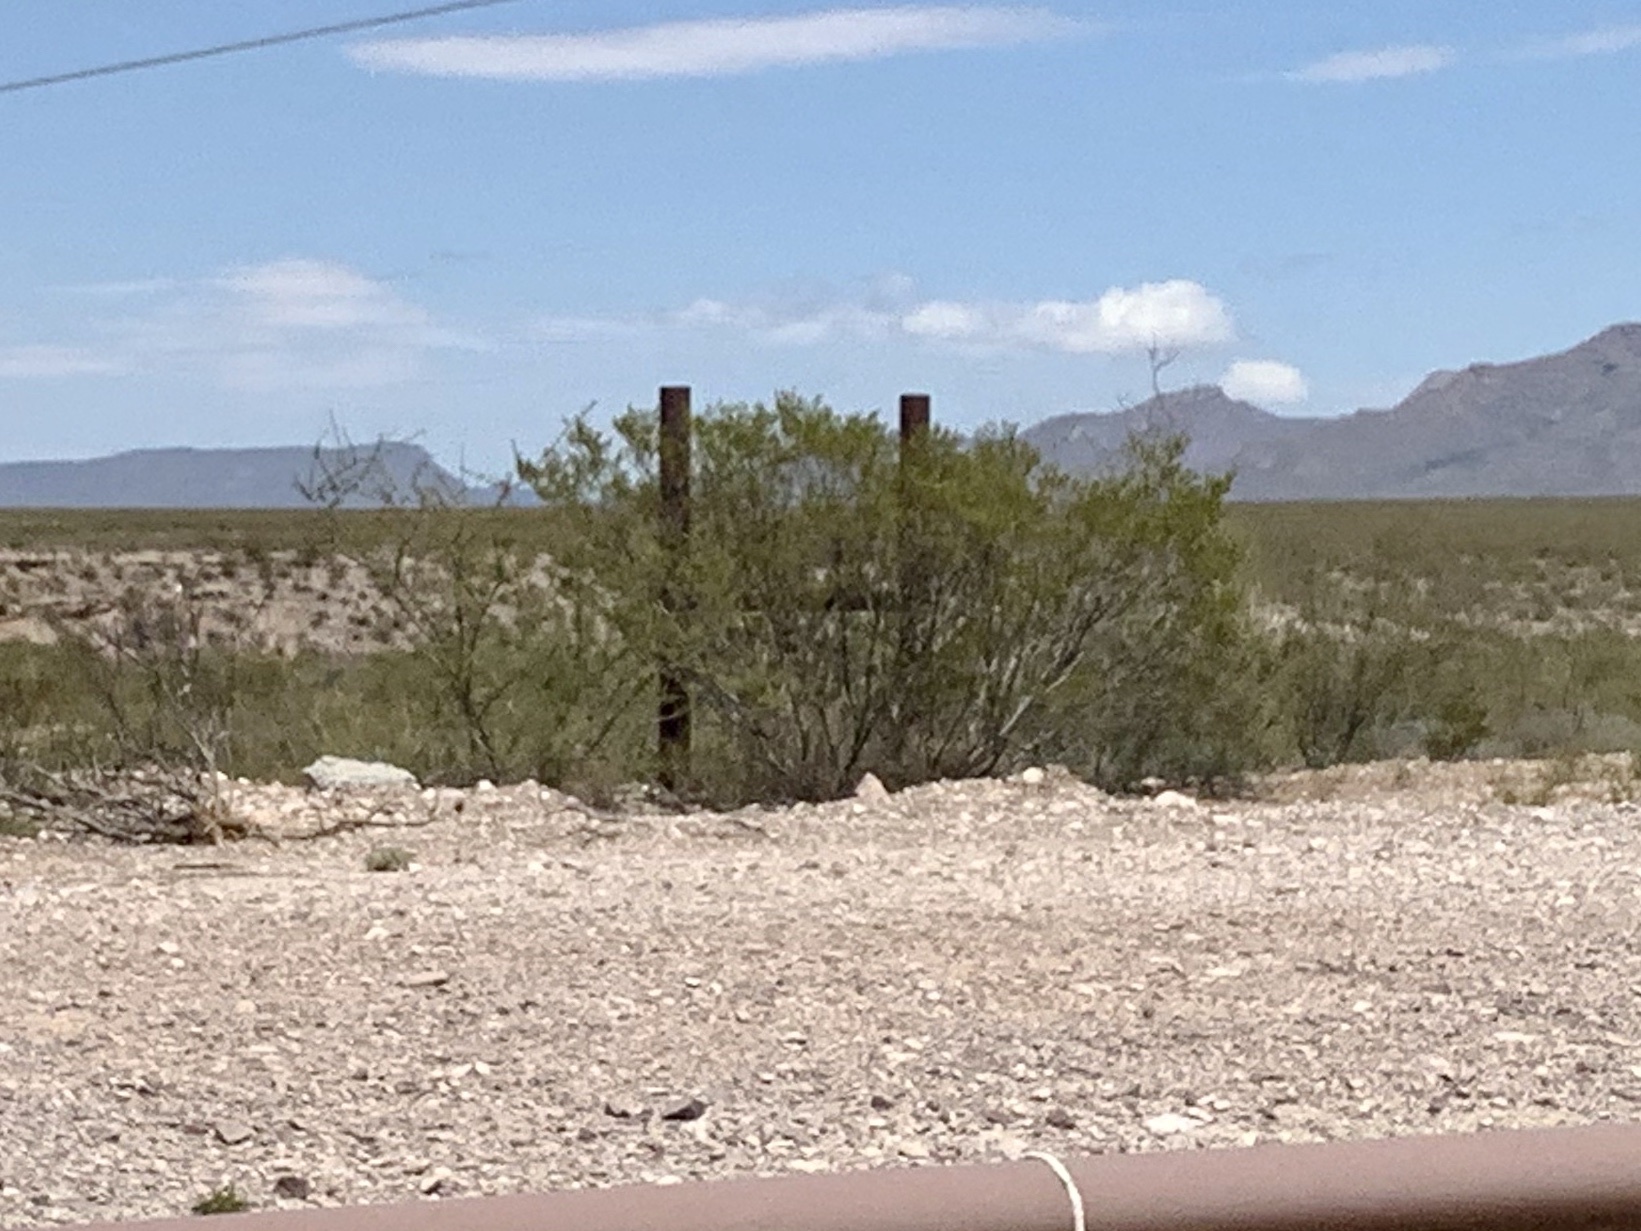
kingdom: Plantae
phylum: Tracheophyta
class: Magnoliopsida
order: Zygophyllales
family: Zygophyllaceae
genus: Larrea
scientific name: Larrea tridentata
